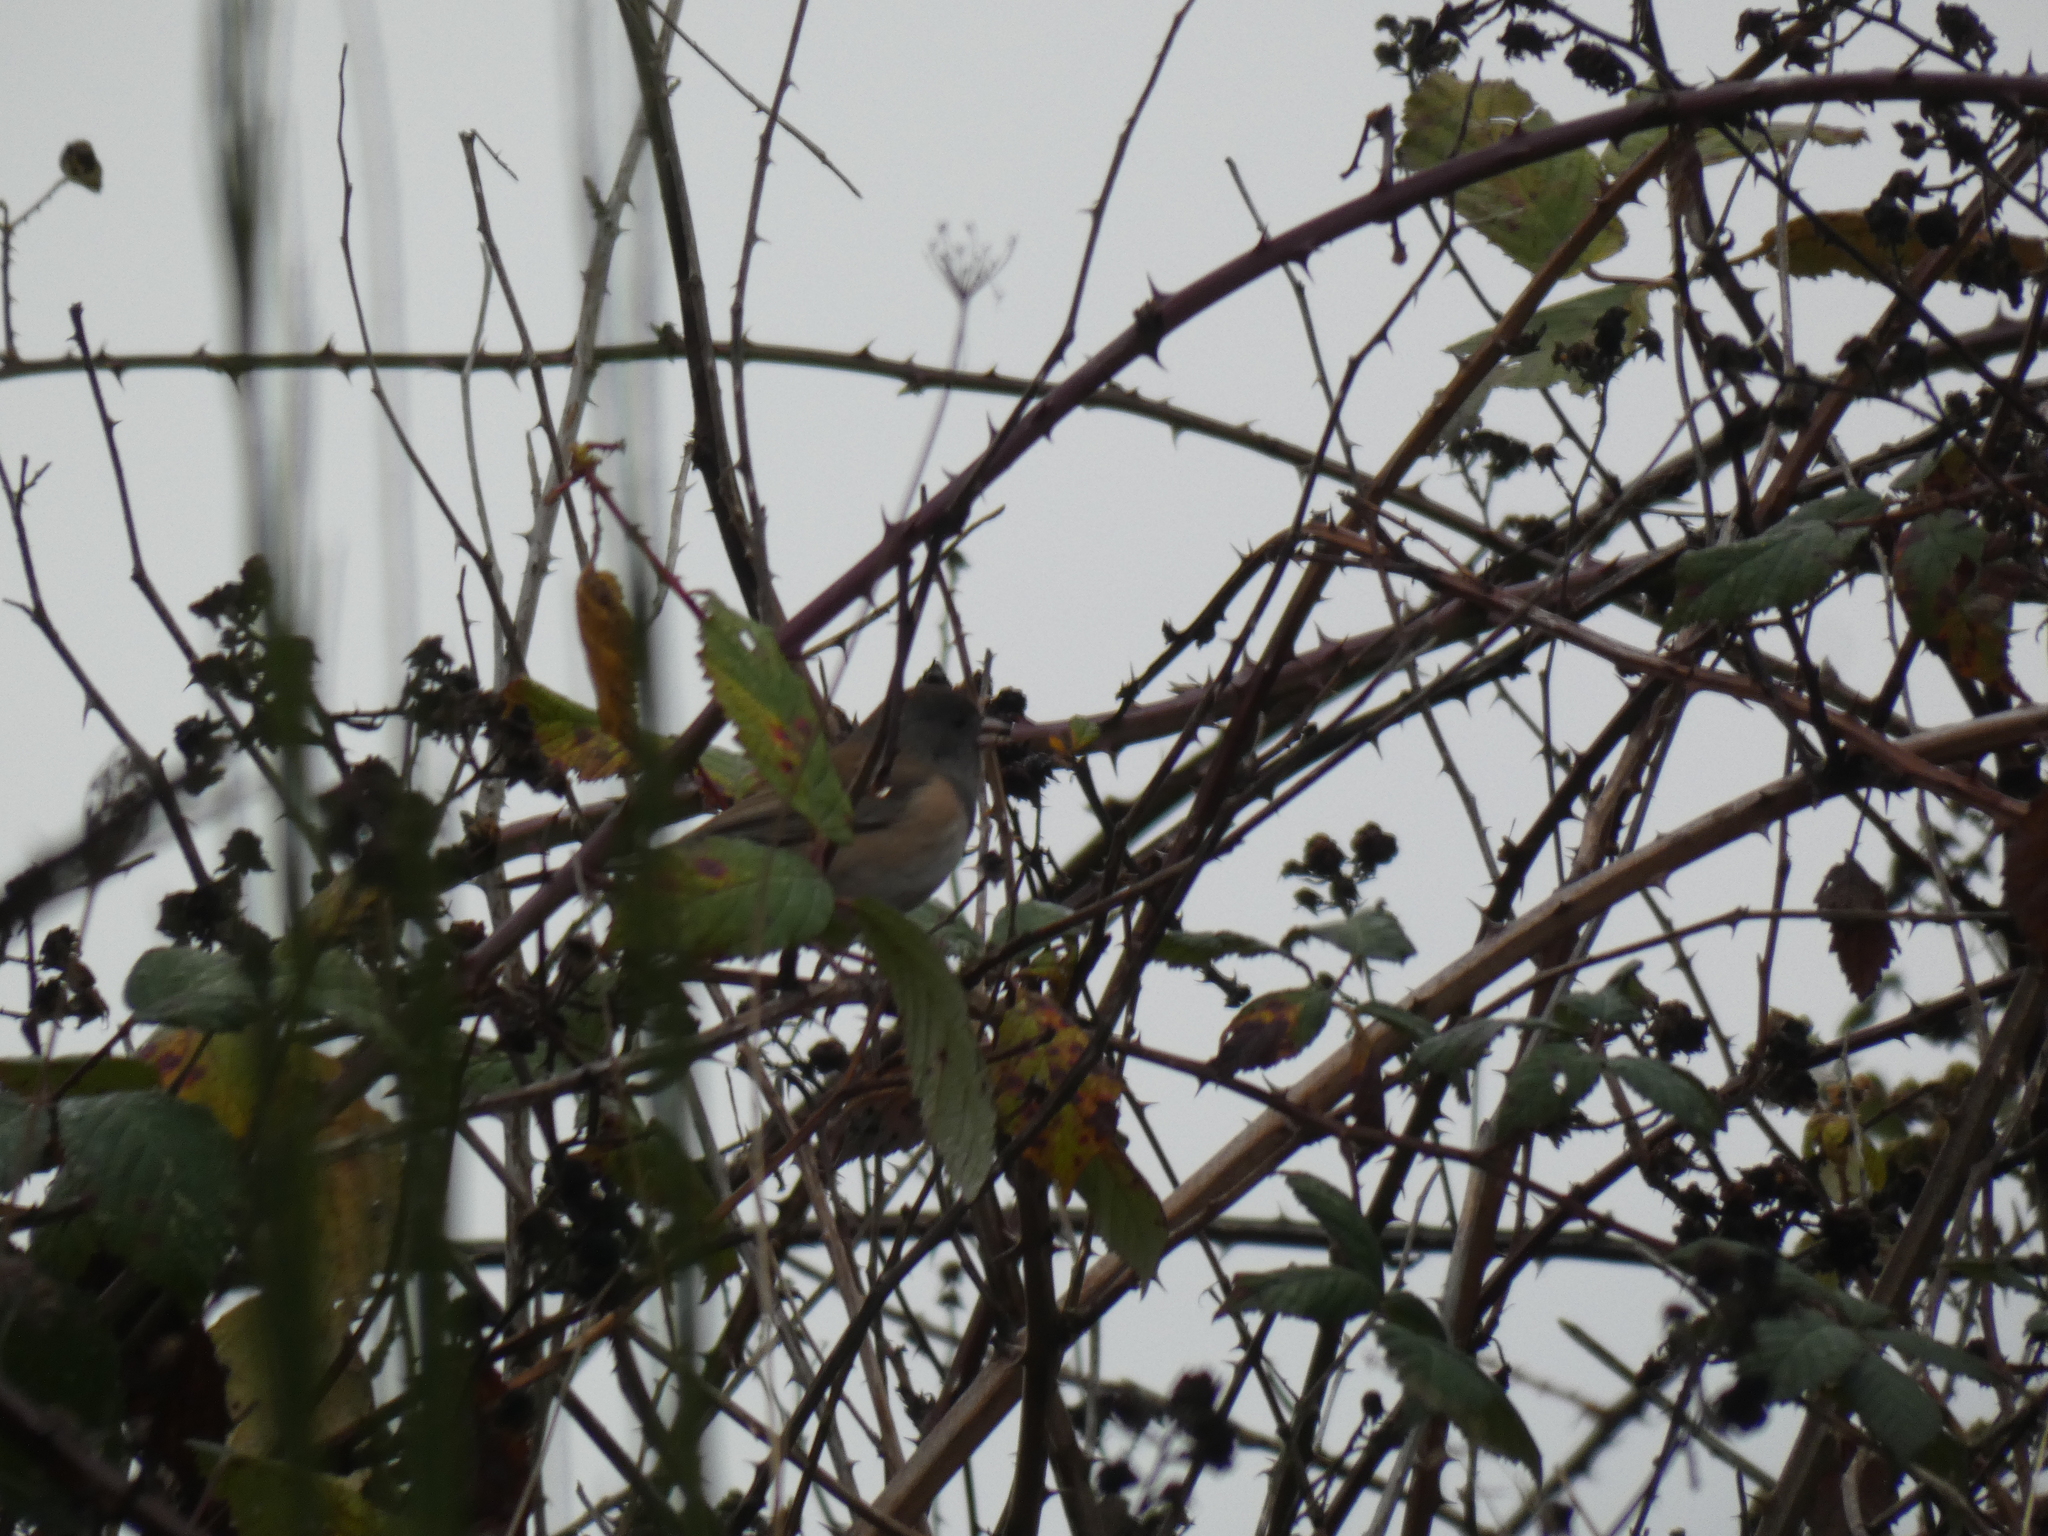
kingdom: Animalia
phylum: Chordata
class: Aves
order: Passeriformes
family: Passerellidae
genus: Junco
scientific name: Junco hyemalis
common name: Dark-eyed junco
